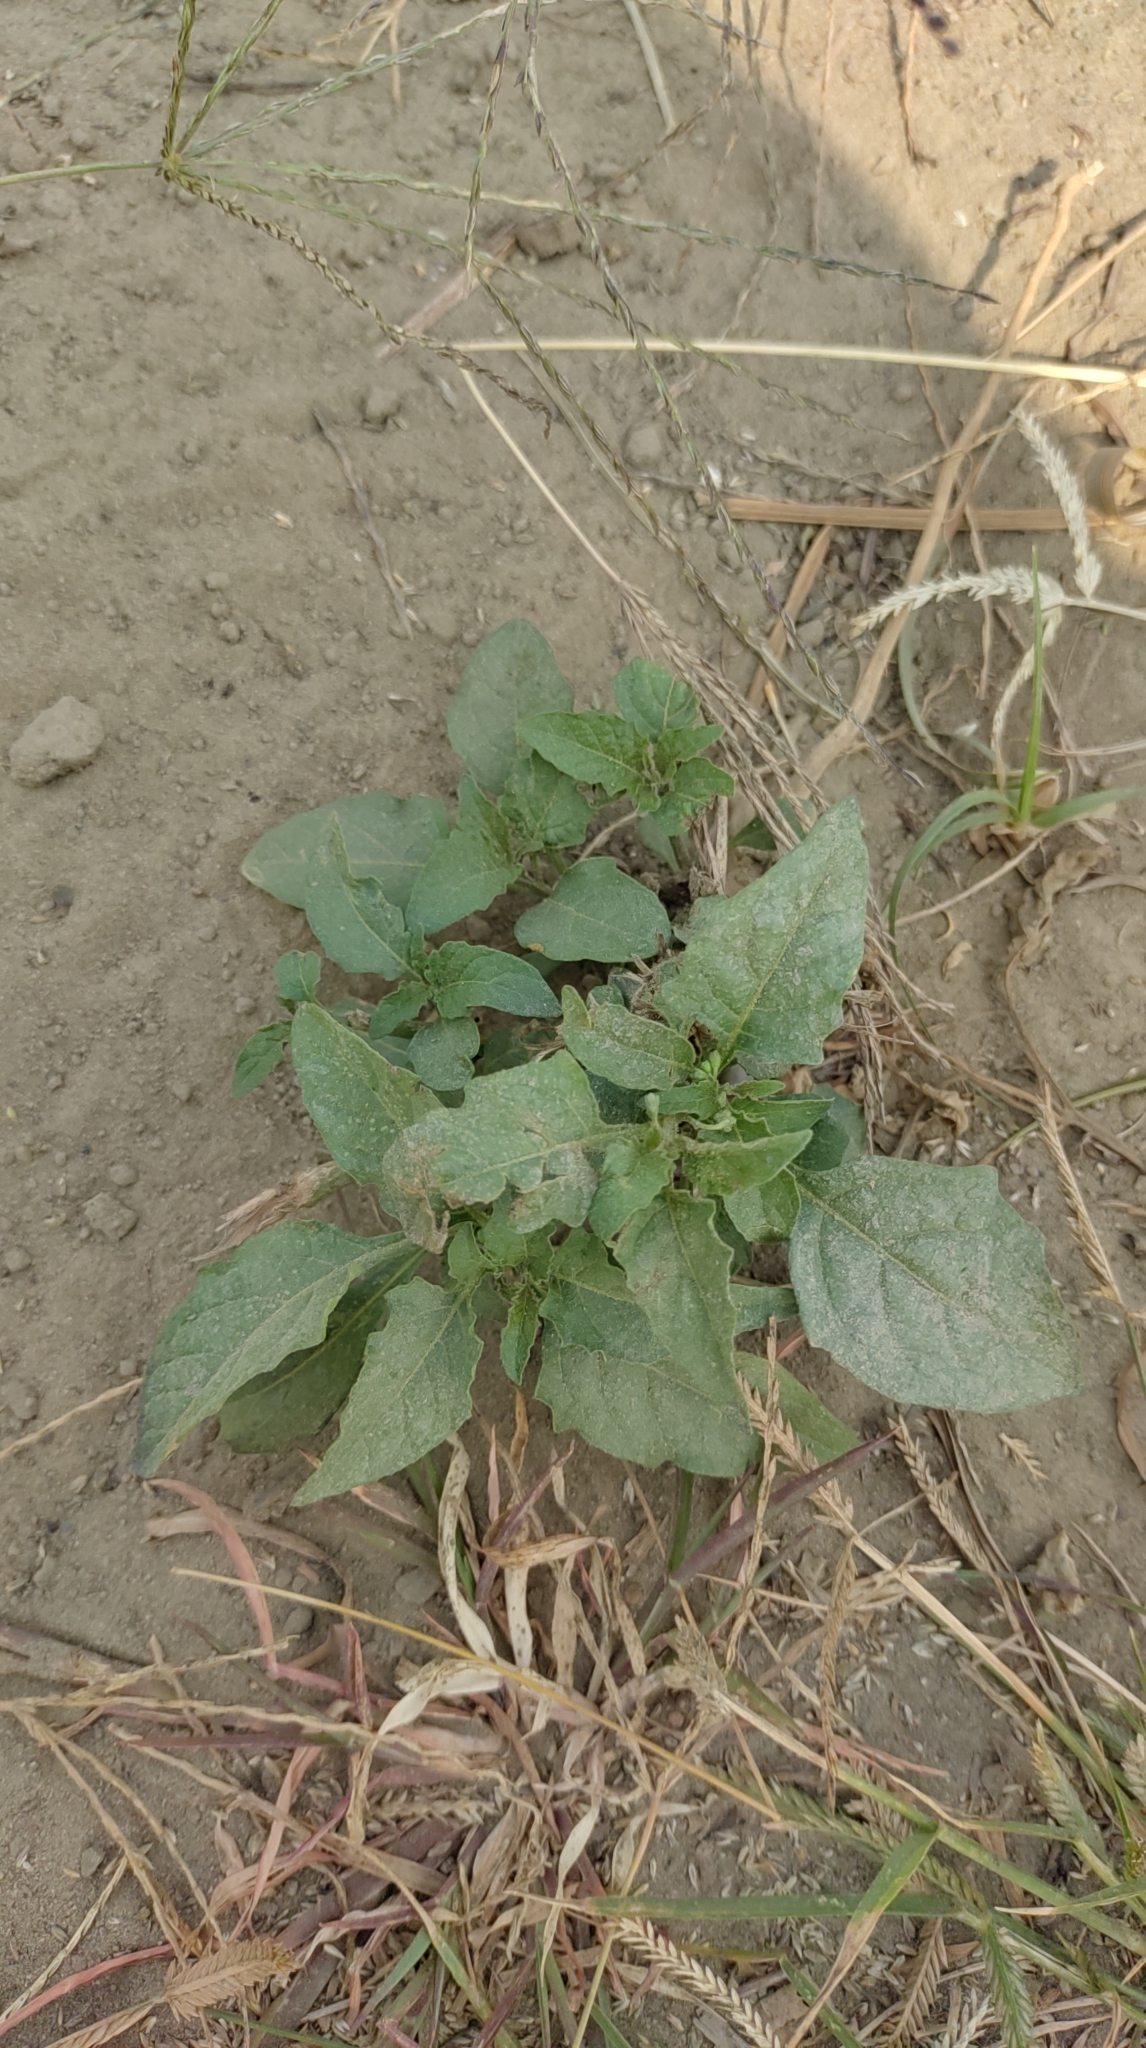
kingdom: Plantae
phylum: Tracheophyta
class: Magnoliopsida
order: Solanales
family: Solanaceae
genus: Solanum
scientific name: Solanum
